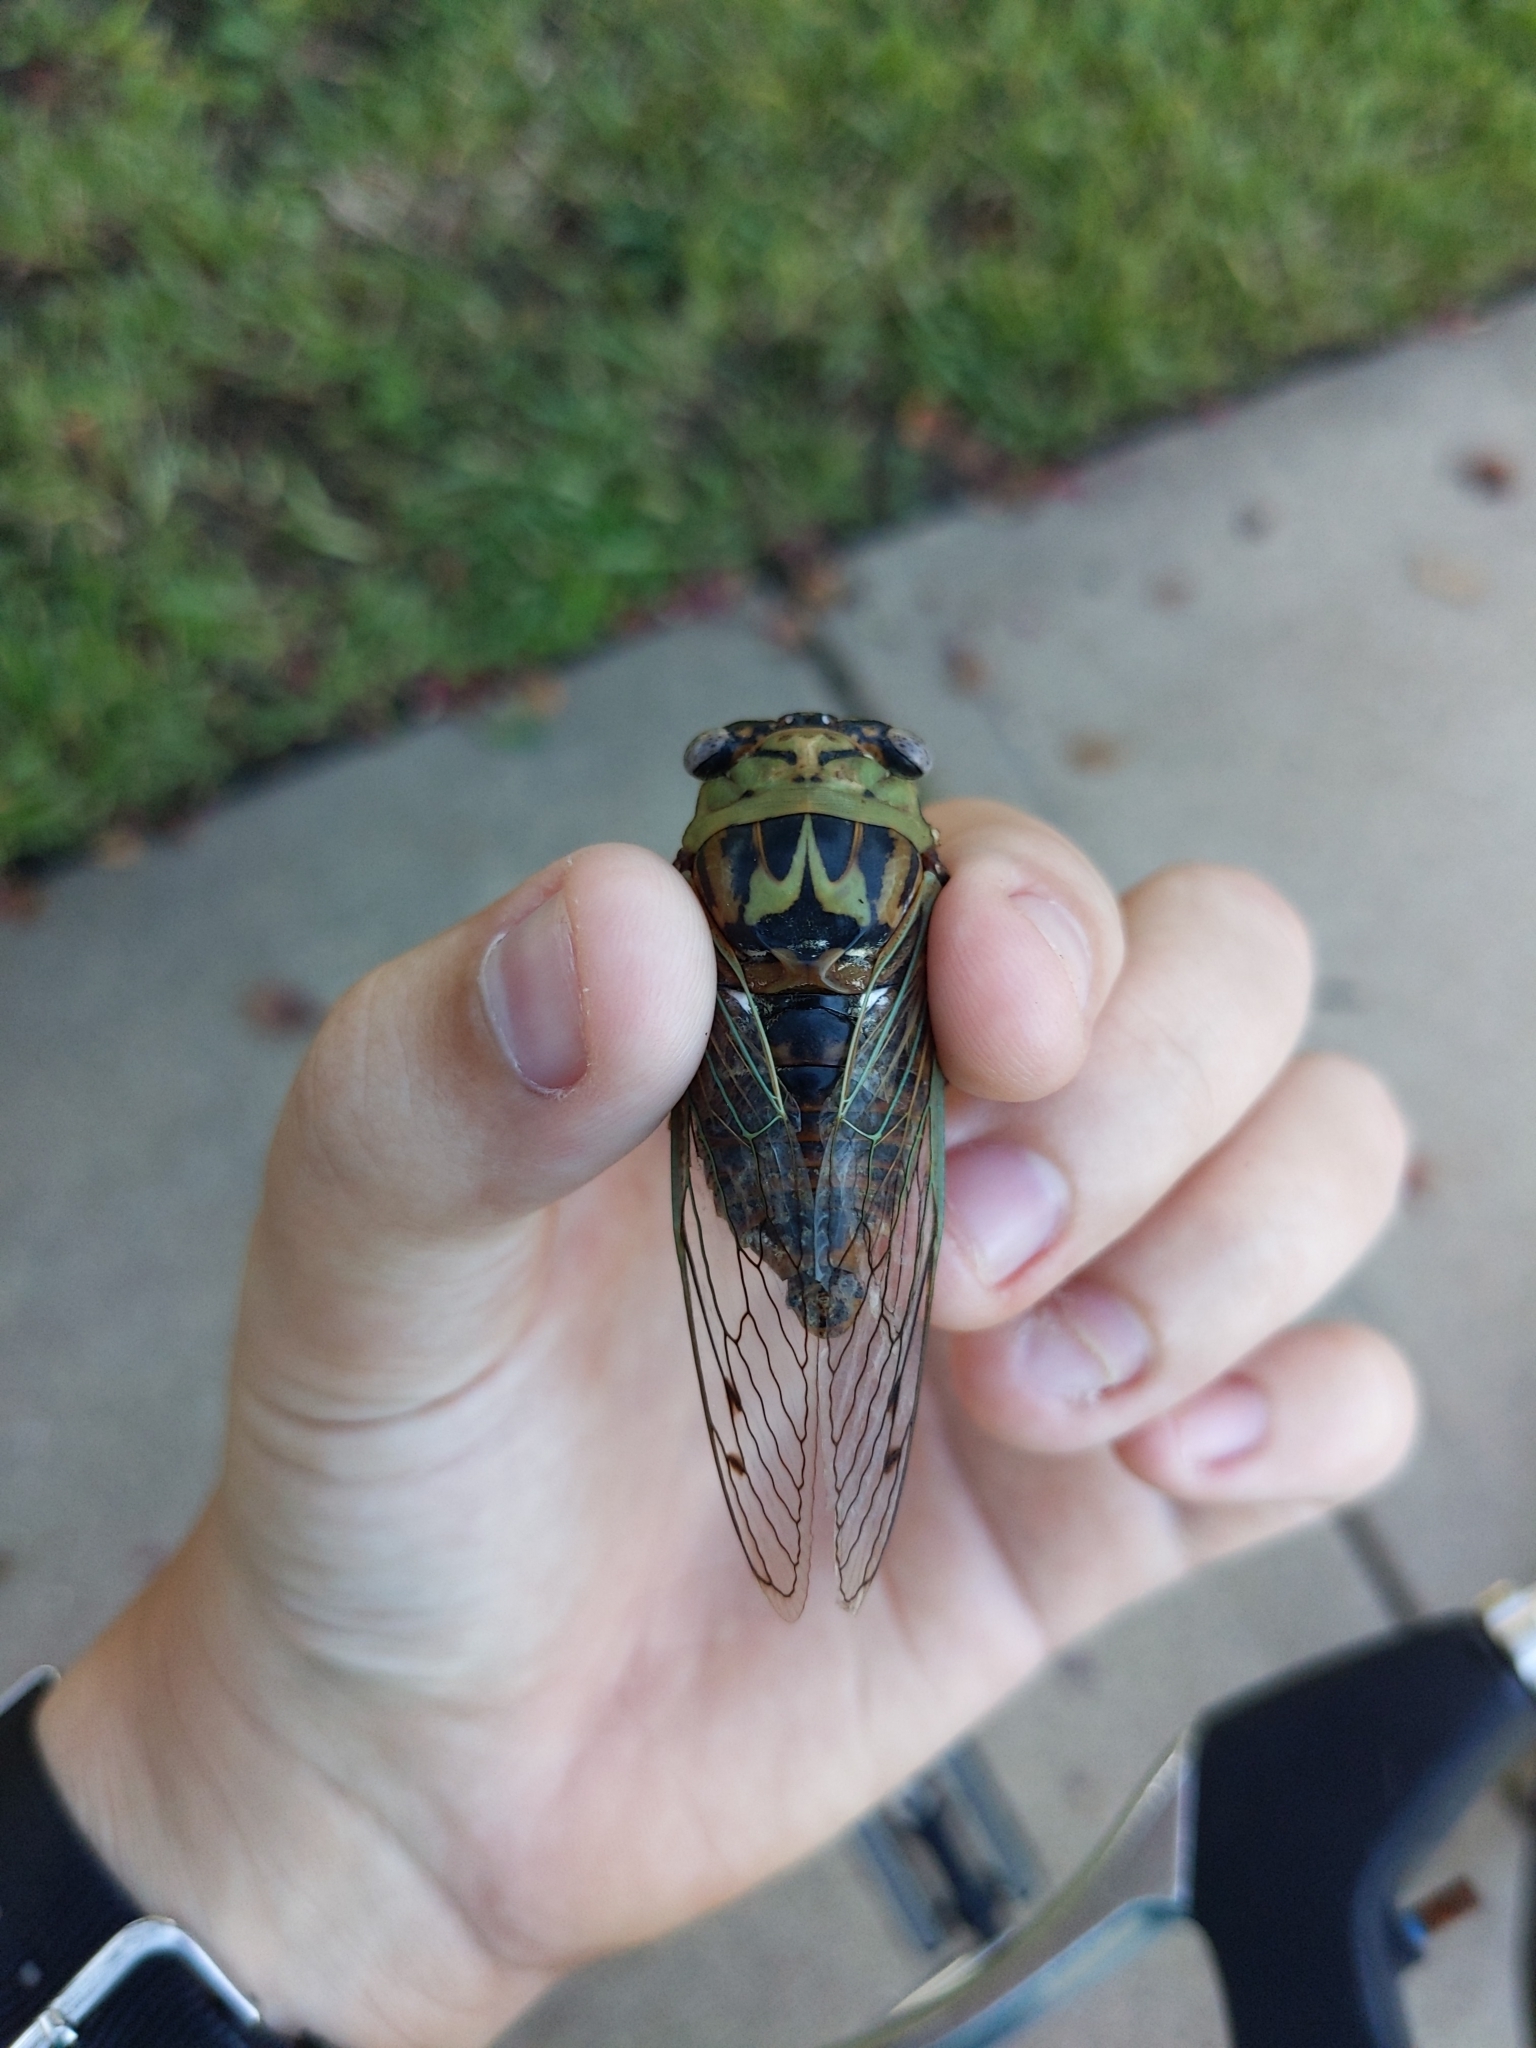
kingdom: Animalia
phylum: Arthropoda
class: Insecta
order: Hemiptera
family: Cicadidae
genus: Megatibicen
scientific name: Megatibicen resh
